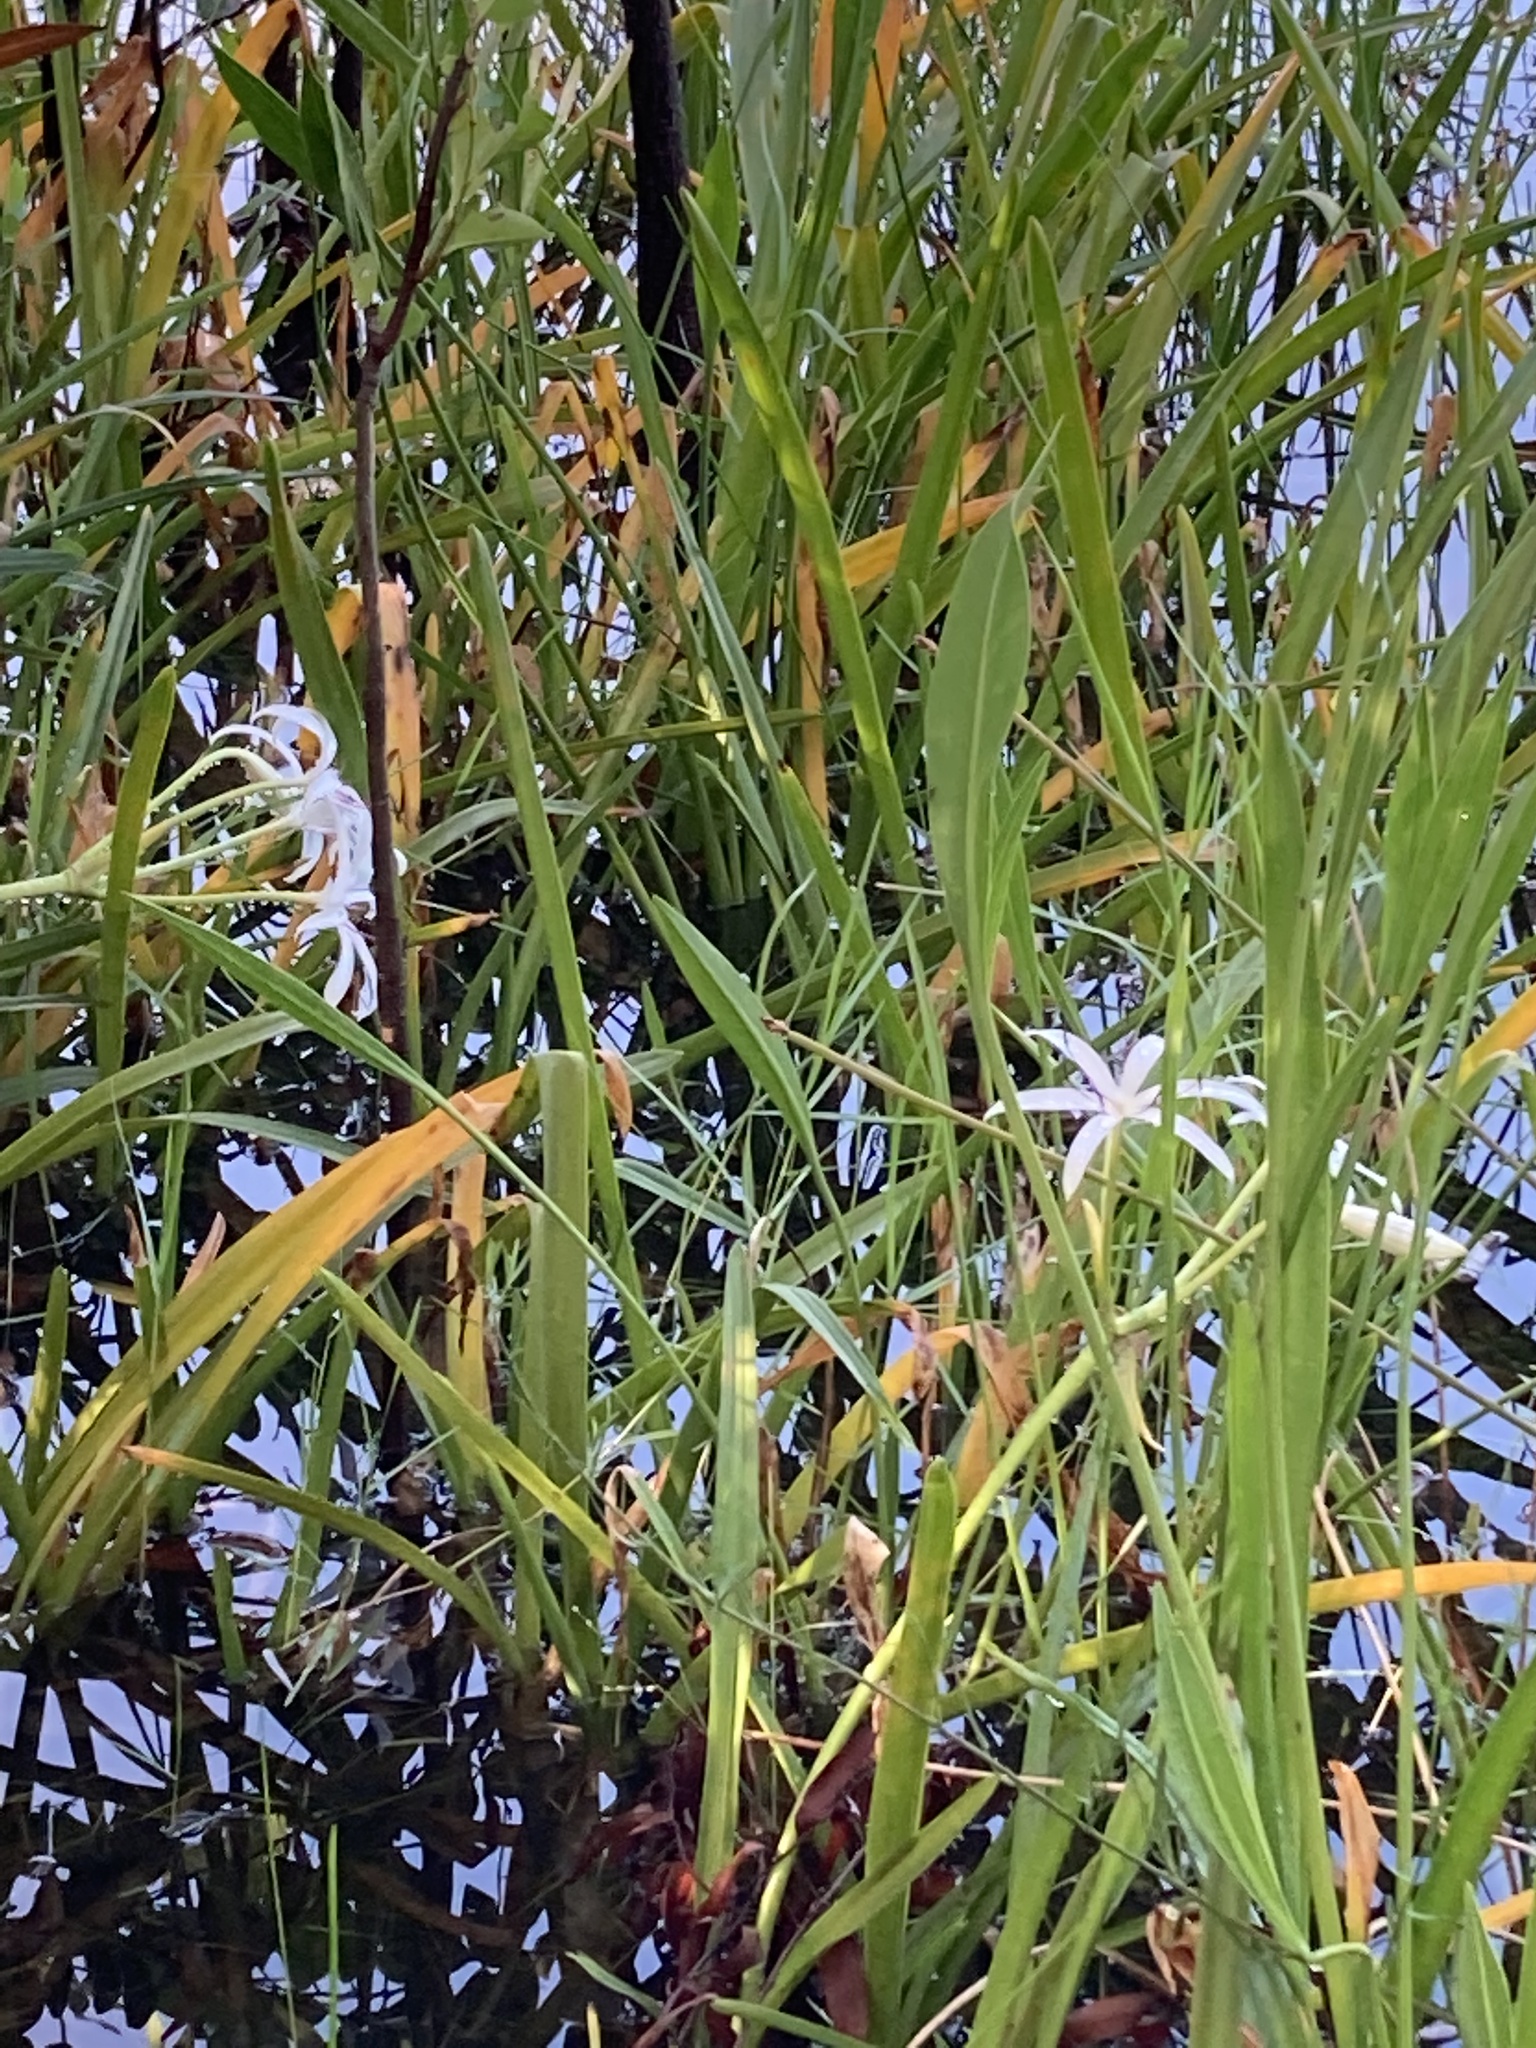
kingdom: Plantae
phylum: Tracheophyta
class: Liliopsida
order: Asparagales
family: Amaryllidaceae
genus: Crinum
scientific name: Crinum americanum
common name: Florida swamp-lily
